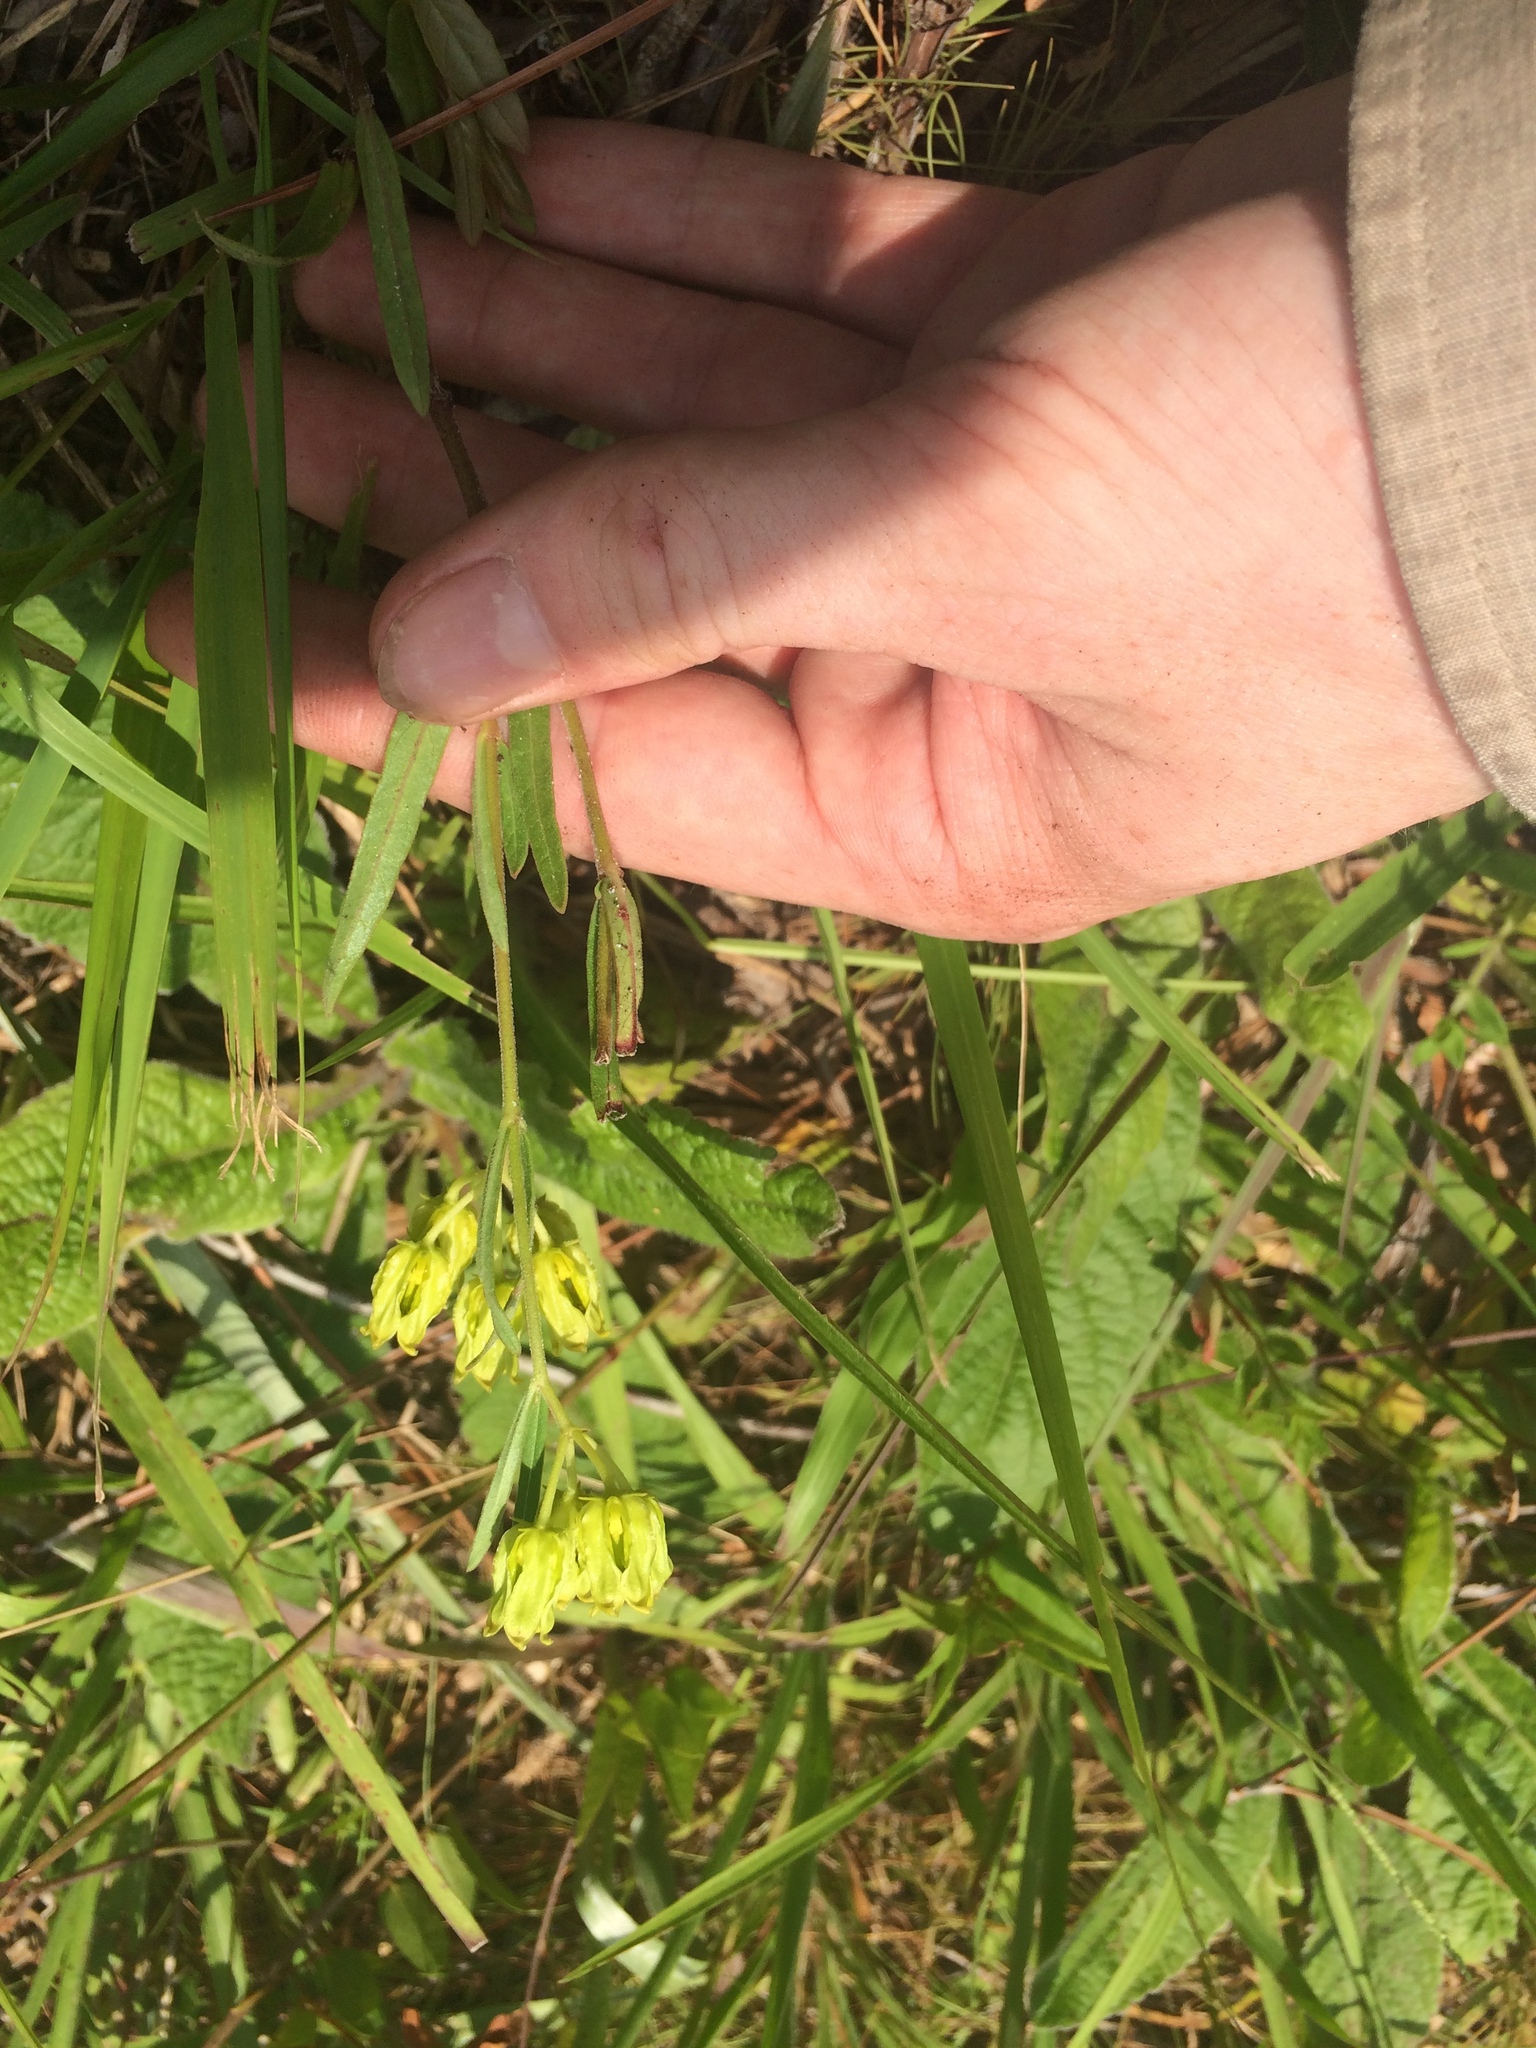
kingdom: Plantae
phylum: Tracheophyta
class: Magnoliopsida
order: Gentianales
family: Apocynaceae
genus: Asclepias
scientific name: Asclepias pedicellata
